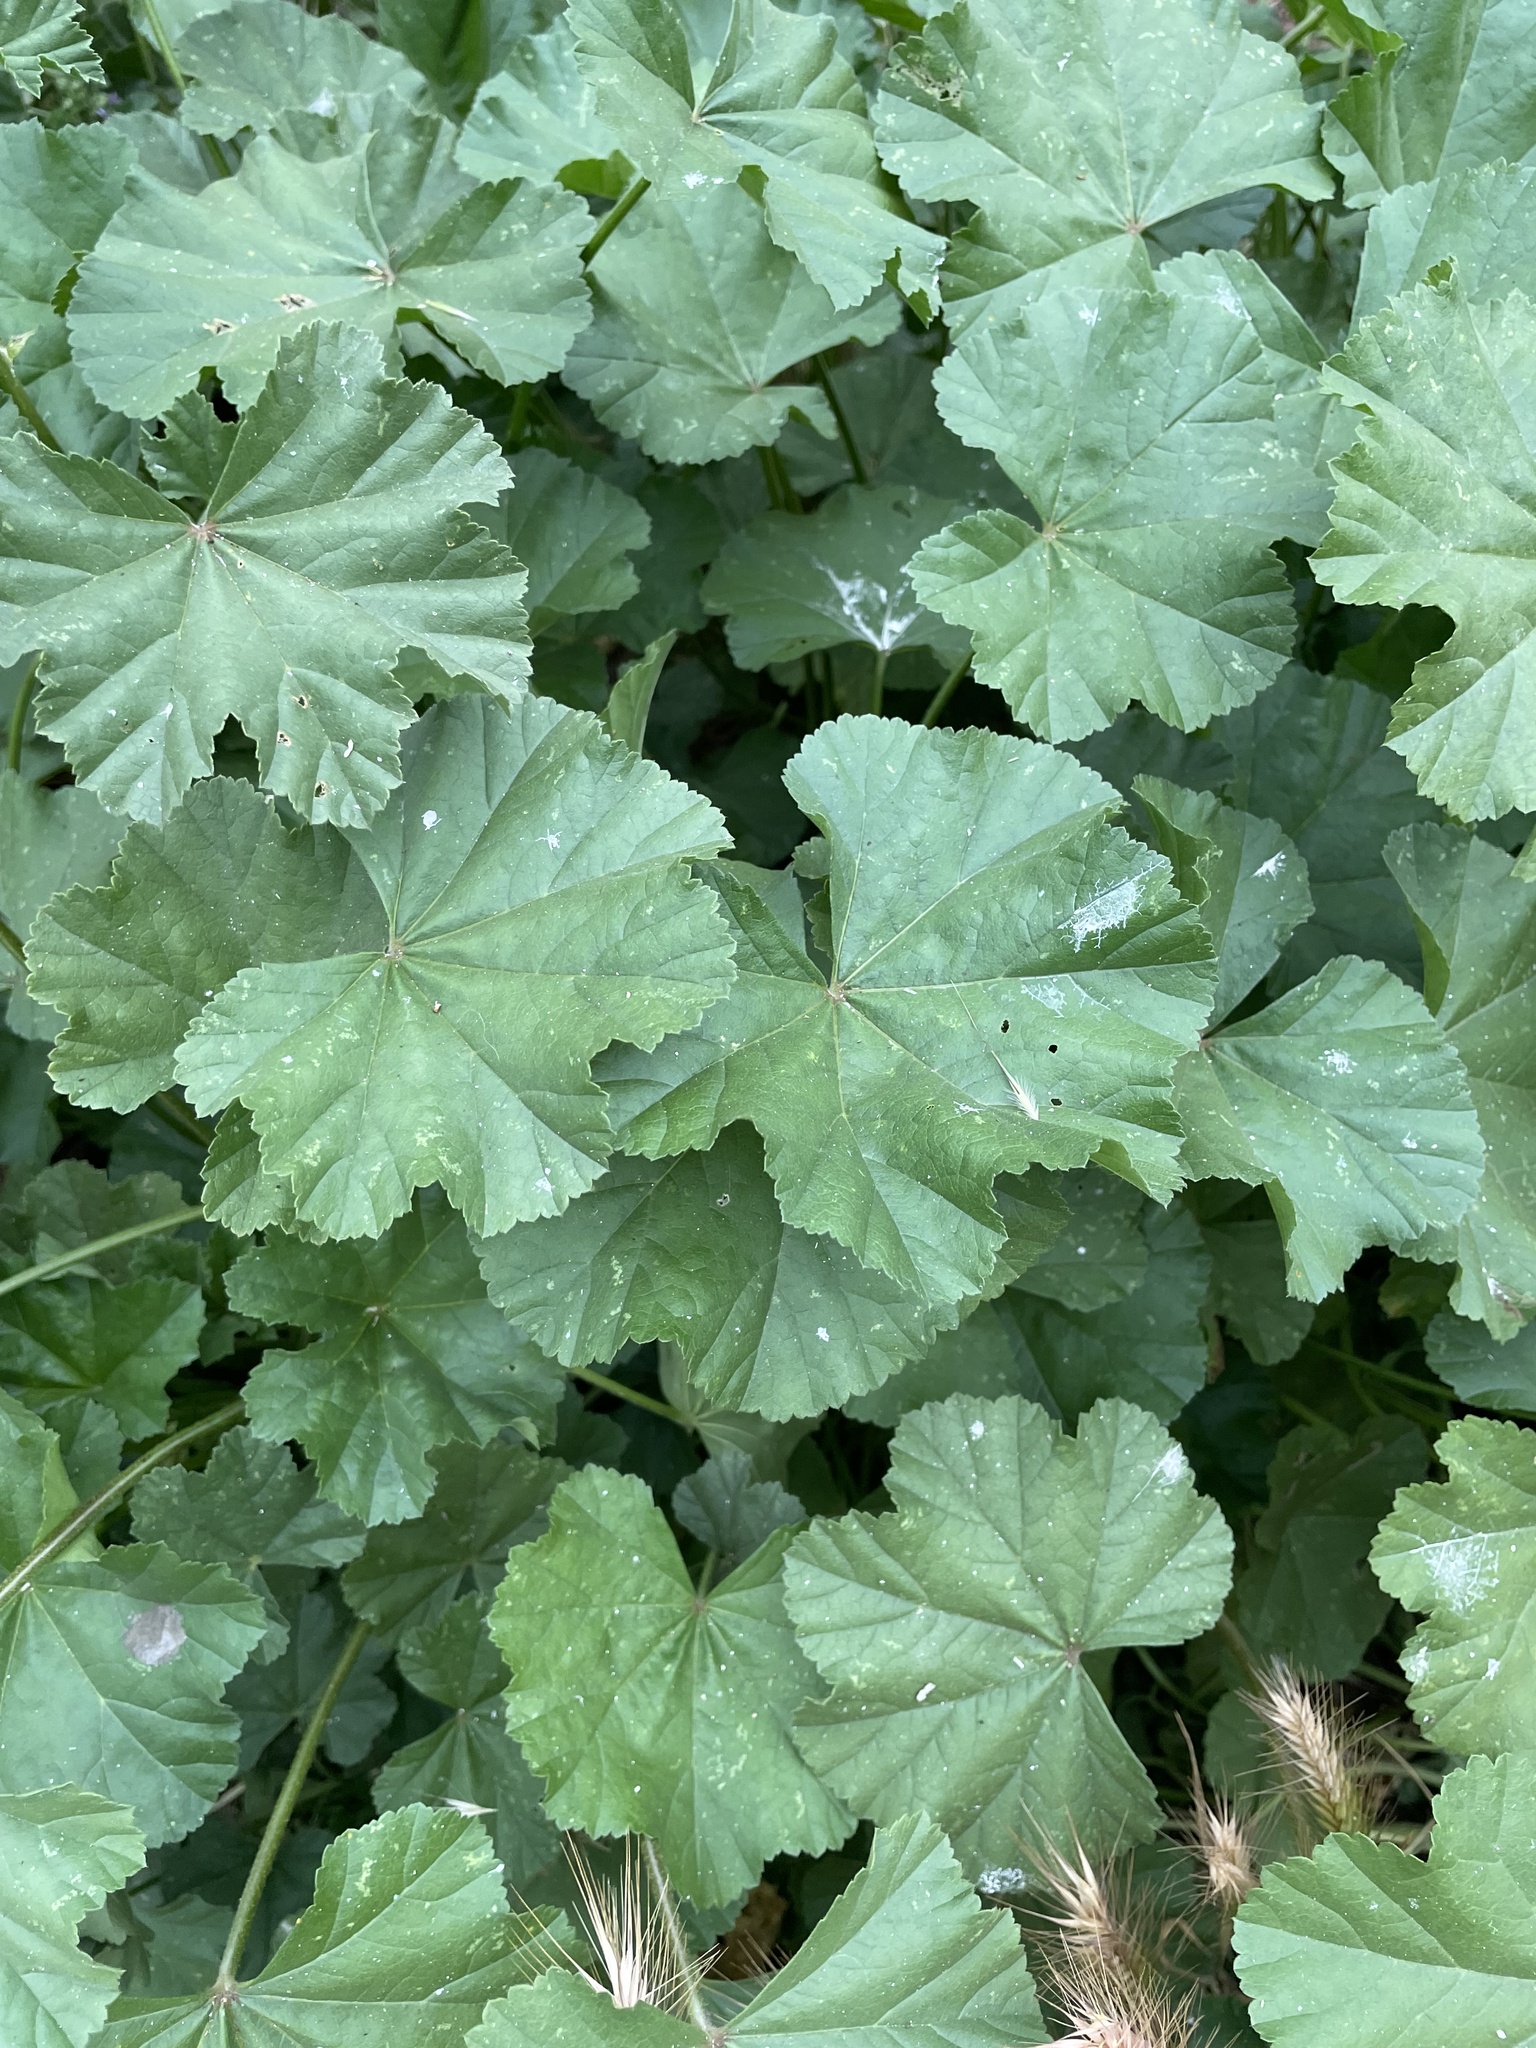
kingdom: Plantae
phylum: Tracheophyta
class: Magnoliopsida
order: Malvales
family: Malvaceae
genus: Malva
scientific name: Malva
